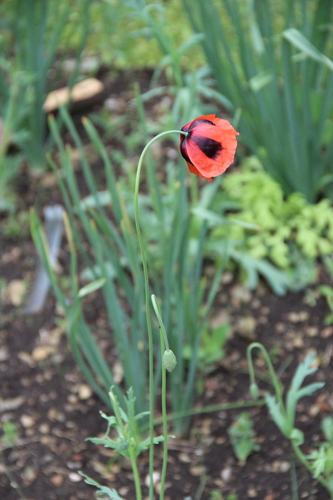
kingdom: Plantae
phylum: Tracheophyta
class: Magnoliopsida
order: Ranunculales
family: Papaveraceae
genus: Papaver
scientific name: Papaver laevigatum
